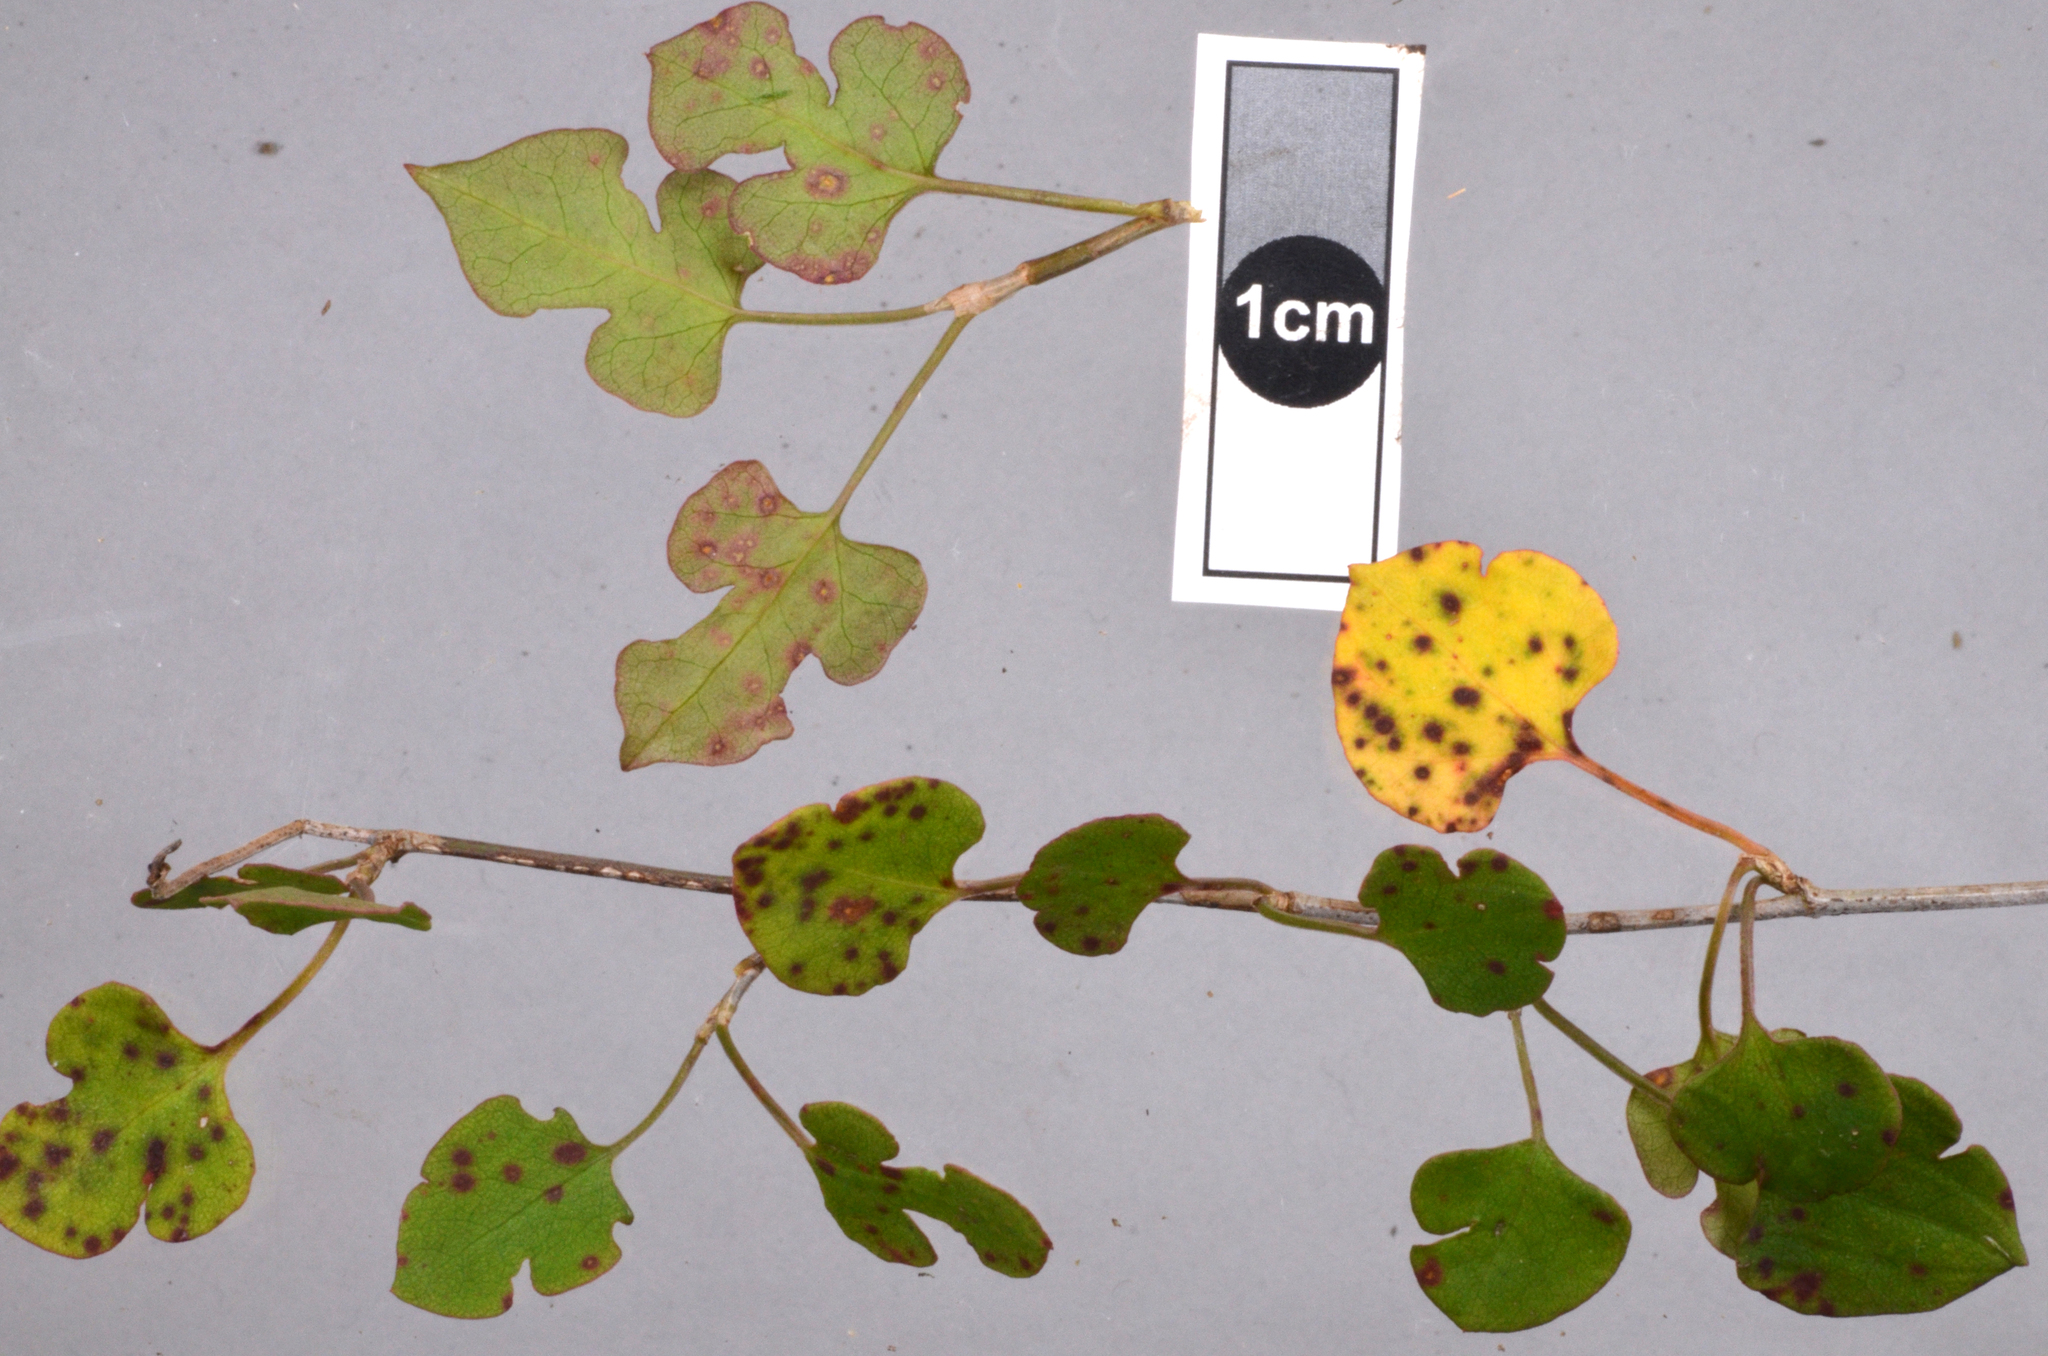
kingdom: Fungi
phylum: Basidiomycota
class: Pucciniomycetes
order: Pucciniales
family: Pucciniaceae
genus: Puccinia
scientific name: Puccinia otagensis
